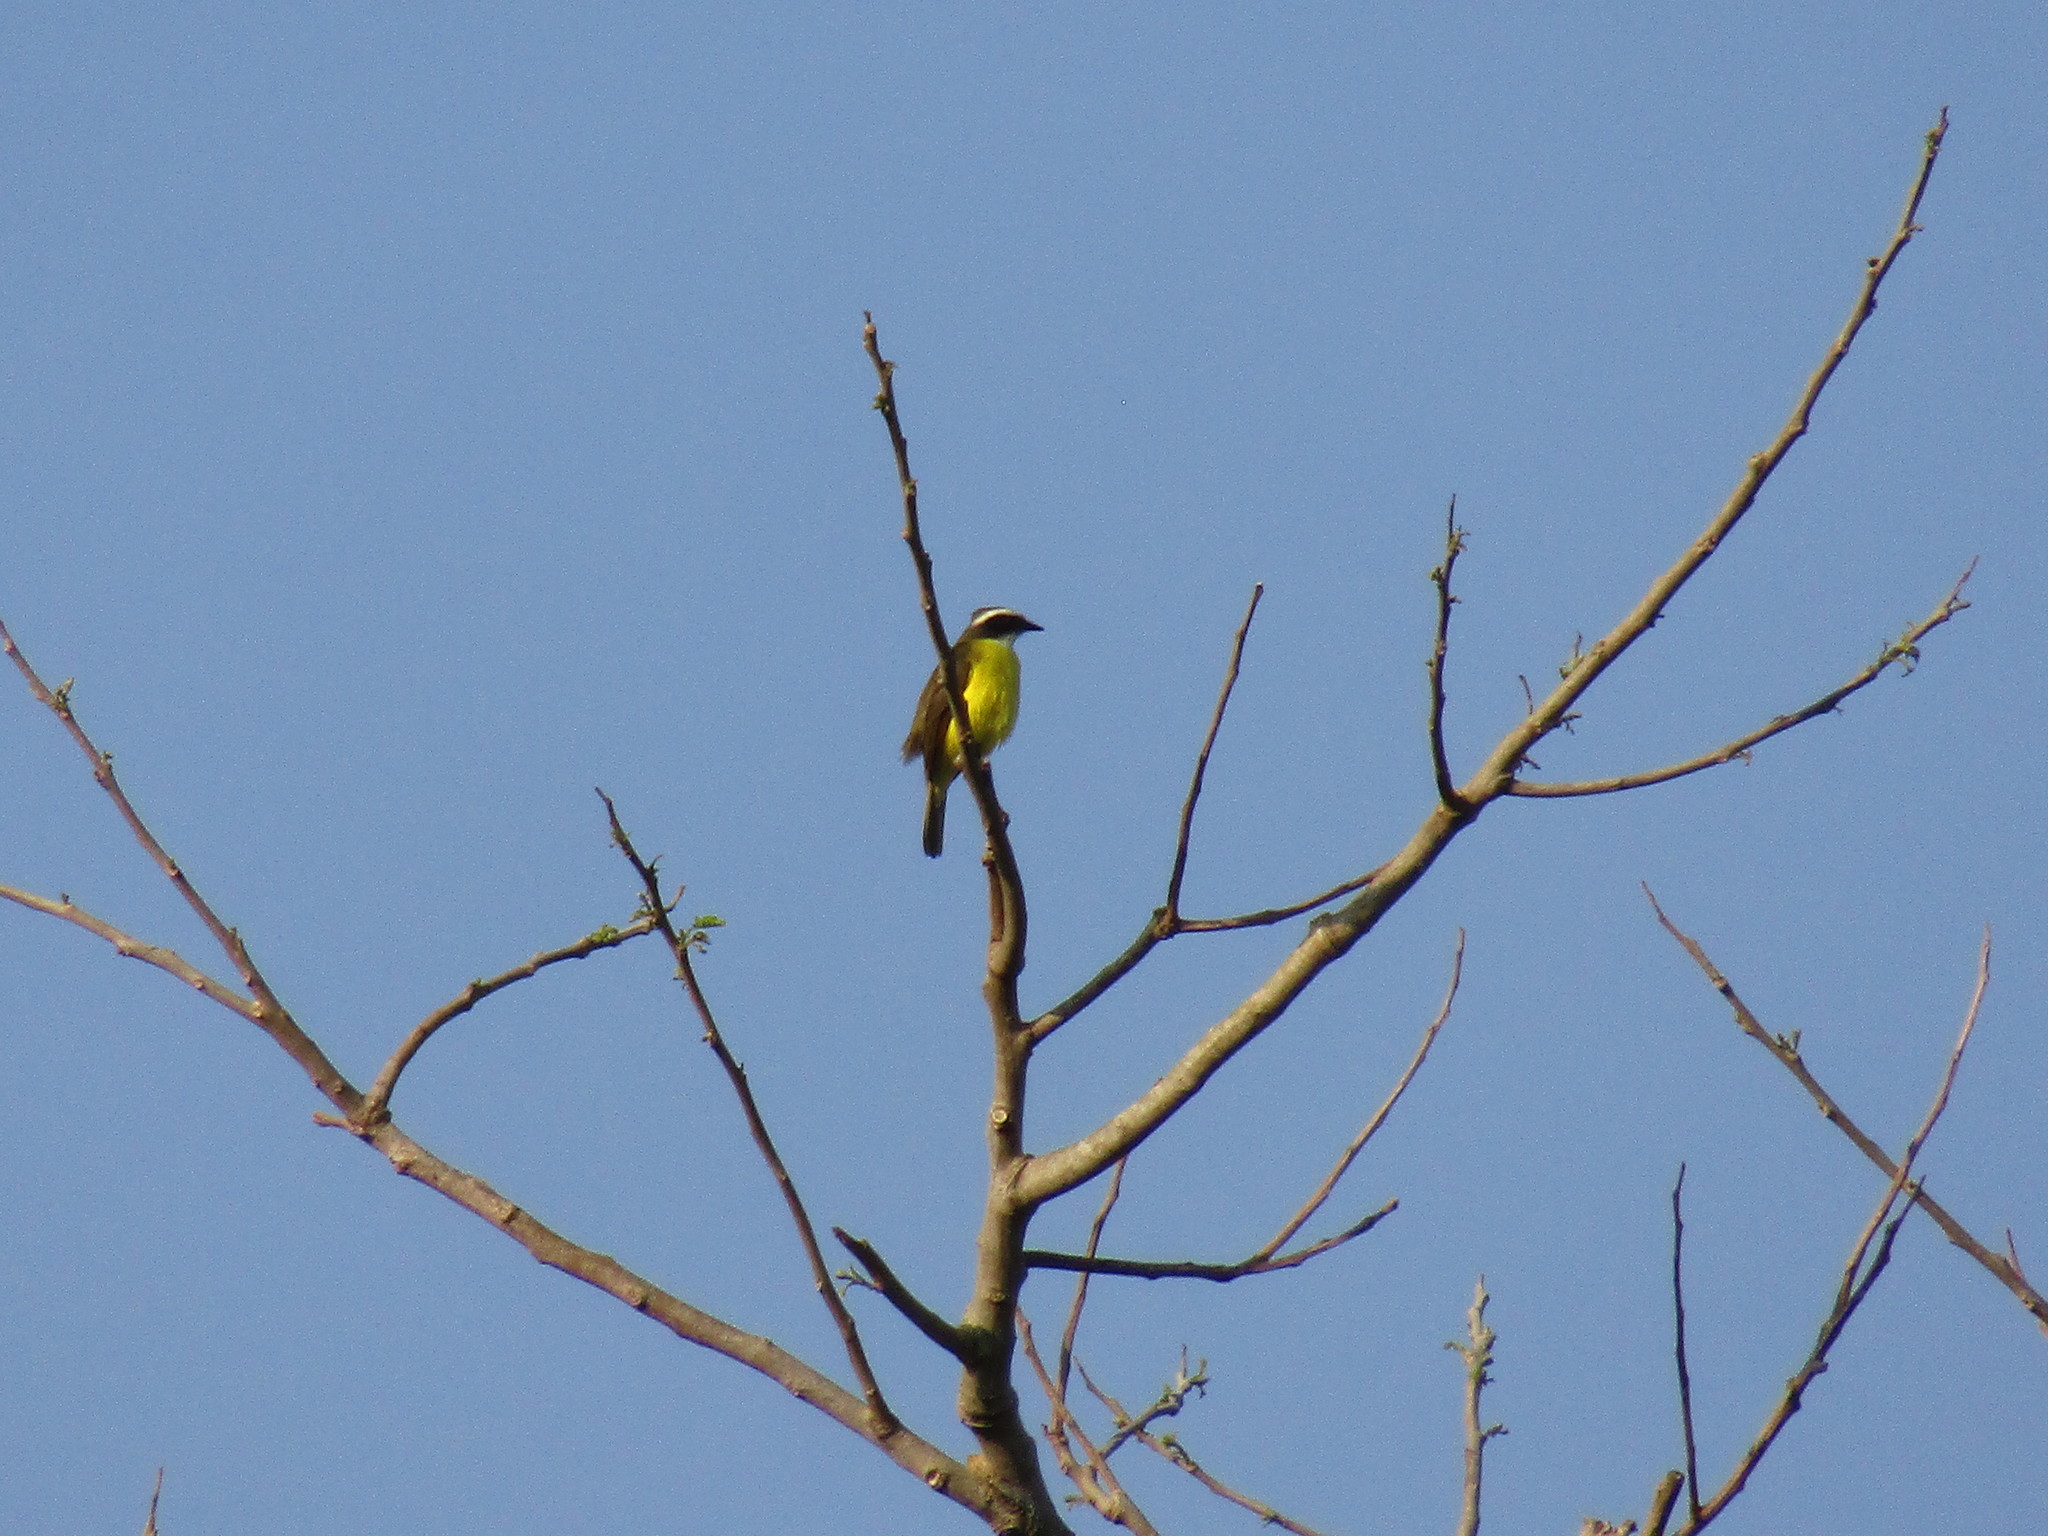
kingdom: Animalia
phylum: Chordata
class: Aves
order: Passeriformes
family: Tyrannidae
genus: Myiozetetes
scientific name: Myiozetetes similis
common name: Social flycatcher
